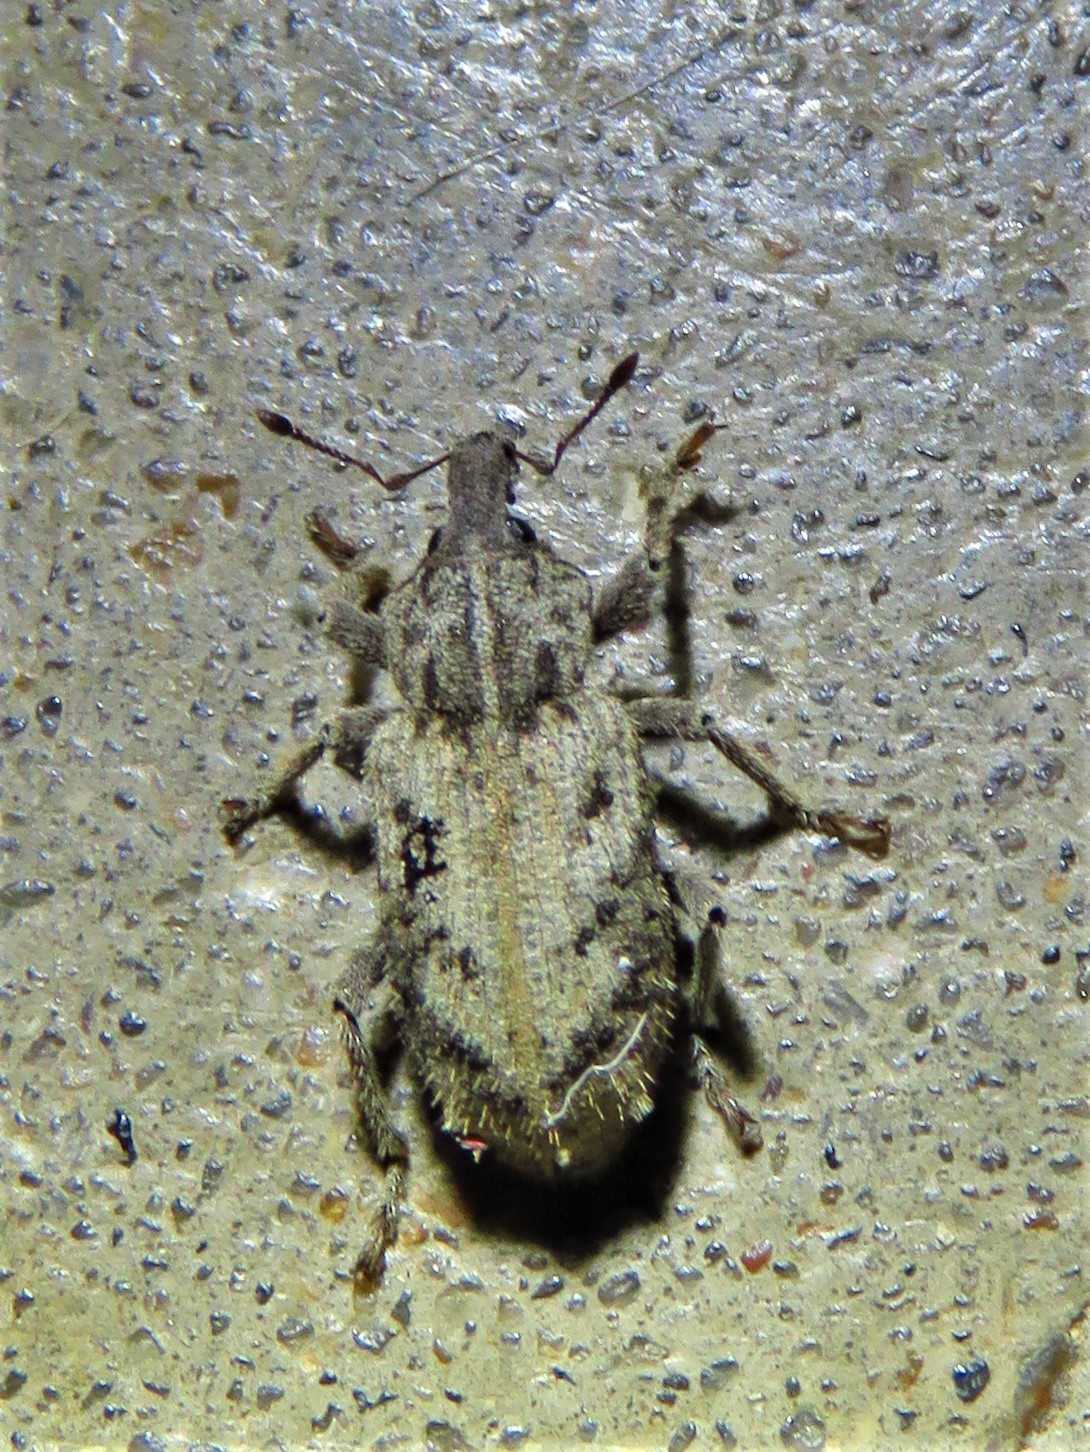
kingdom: Animalia
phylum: Arthropoda
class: Insecta
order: Coleoptera
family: Curculionidae
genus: Listroderes
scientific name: Listroderes difficilis
